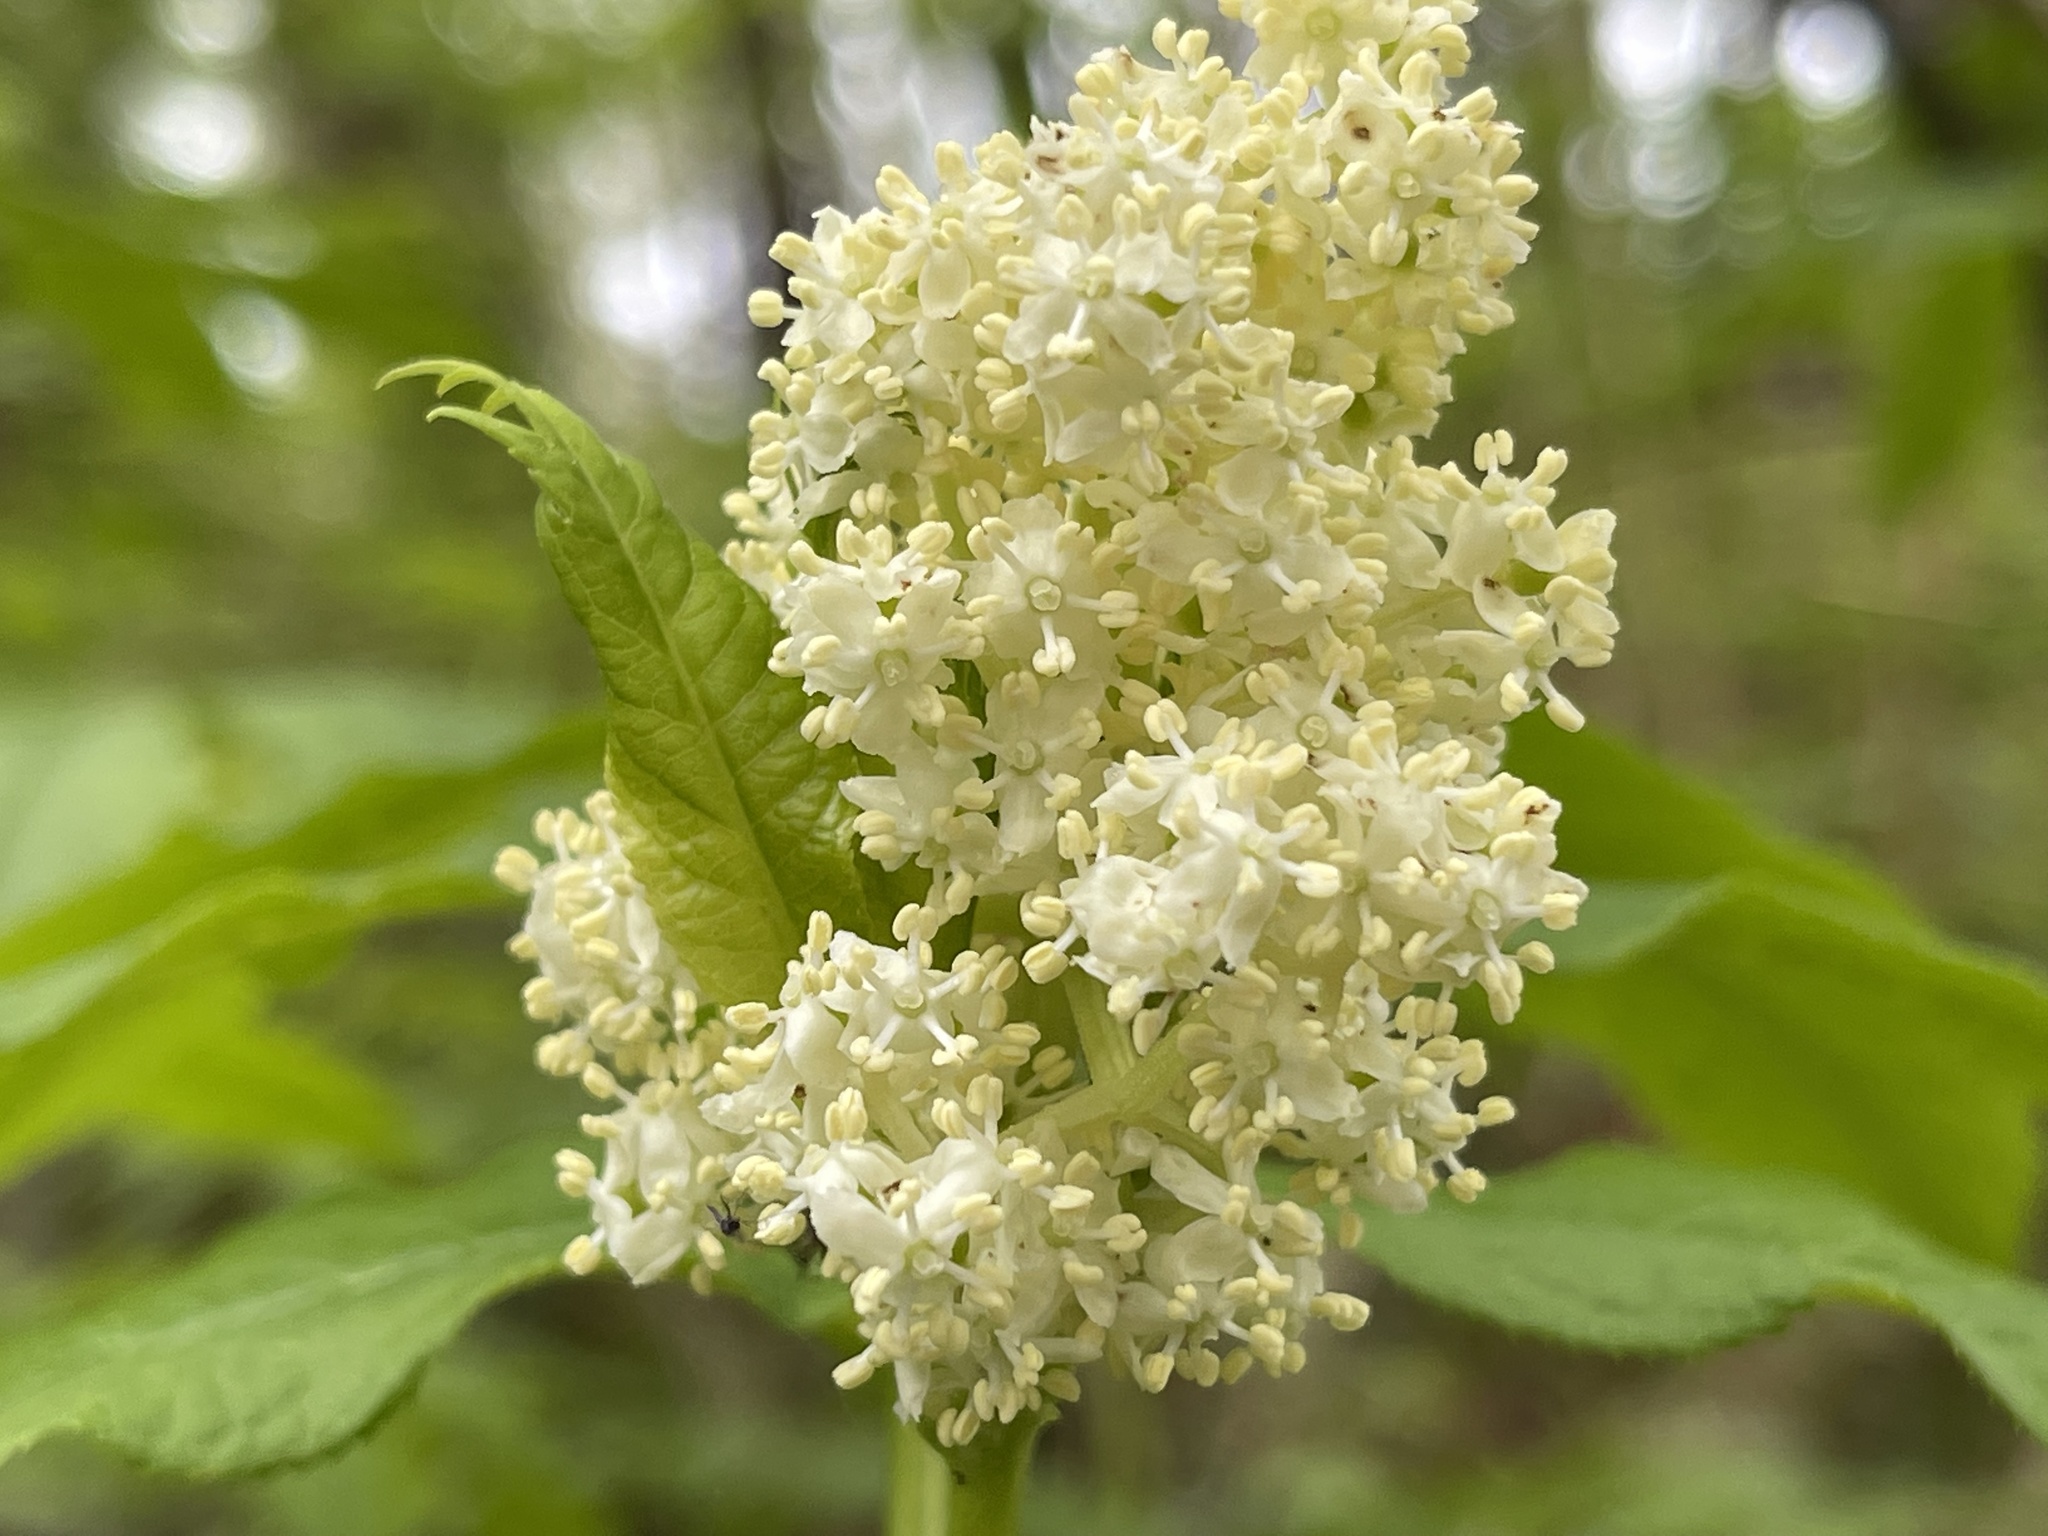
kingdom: Plantae
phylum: Tracheophyta
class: Magnoliopsida
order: Dipsacales
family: Viburnaceae
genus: Sambucus
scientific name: Sambucus racemosa
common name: Red-berried elder
